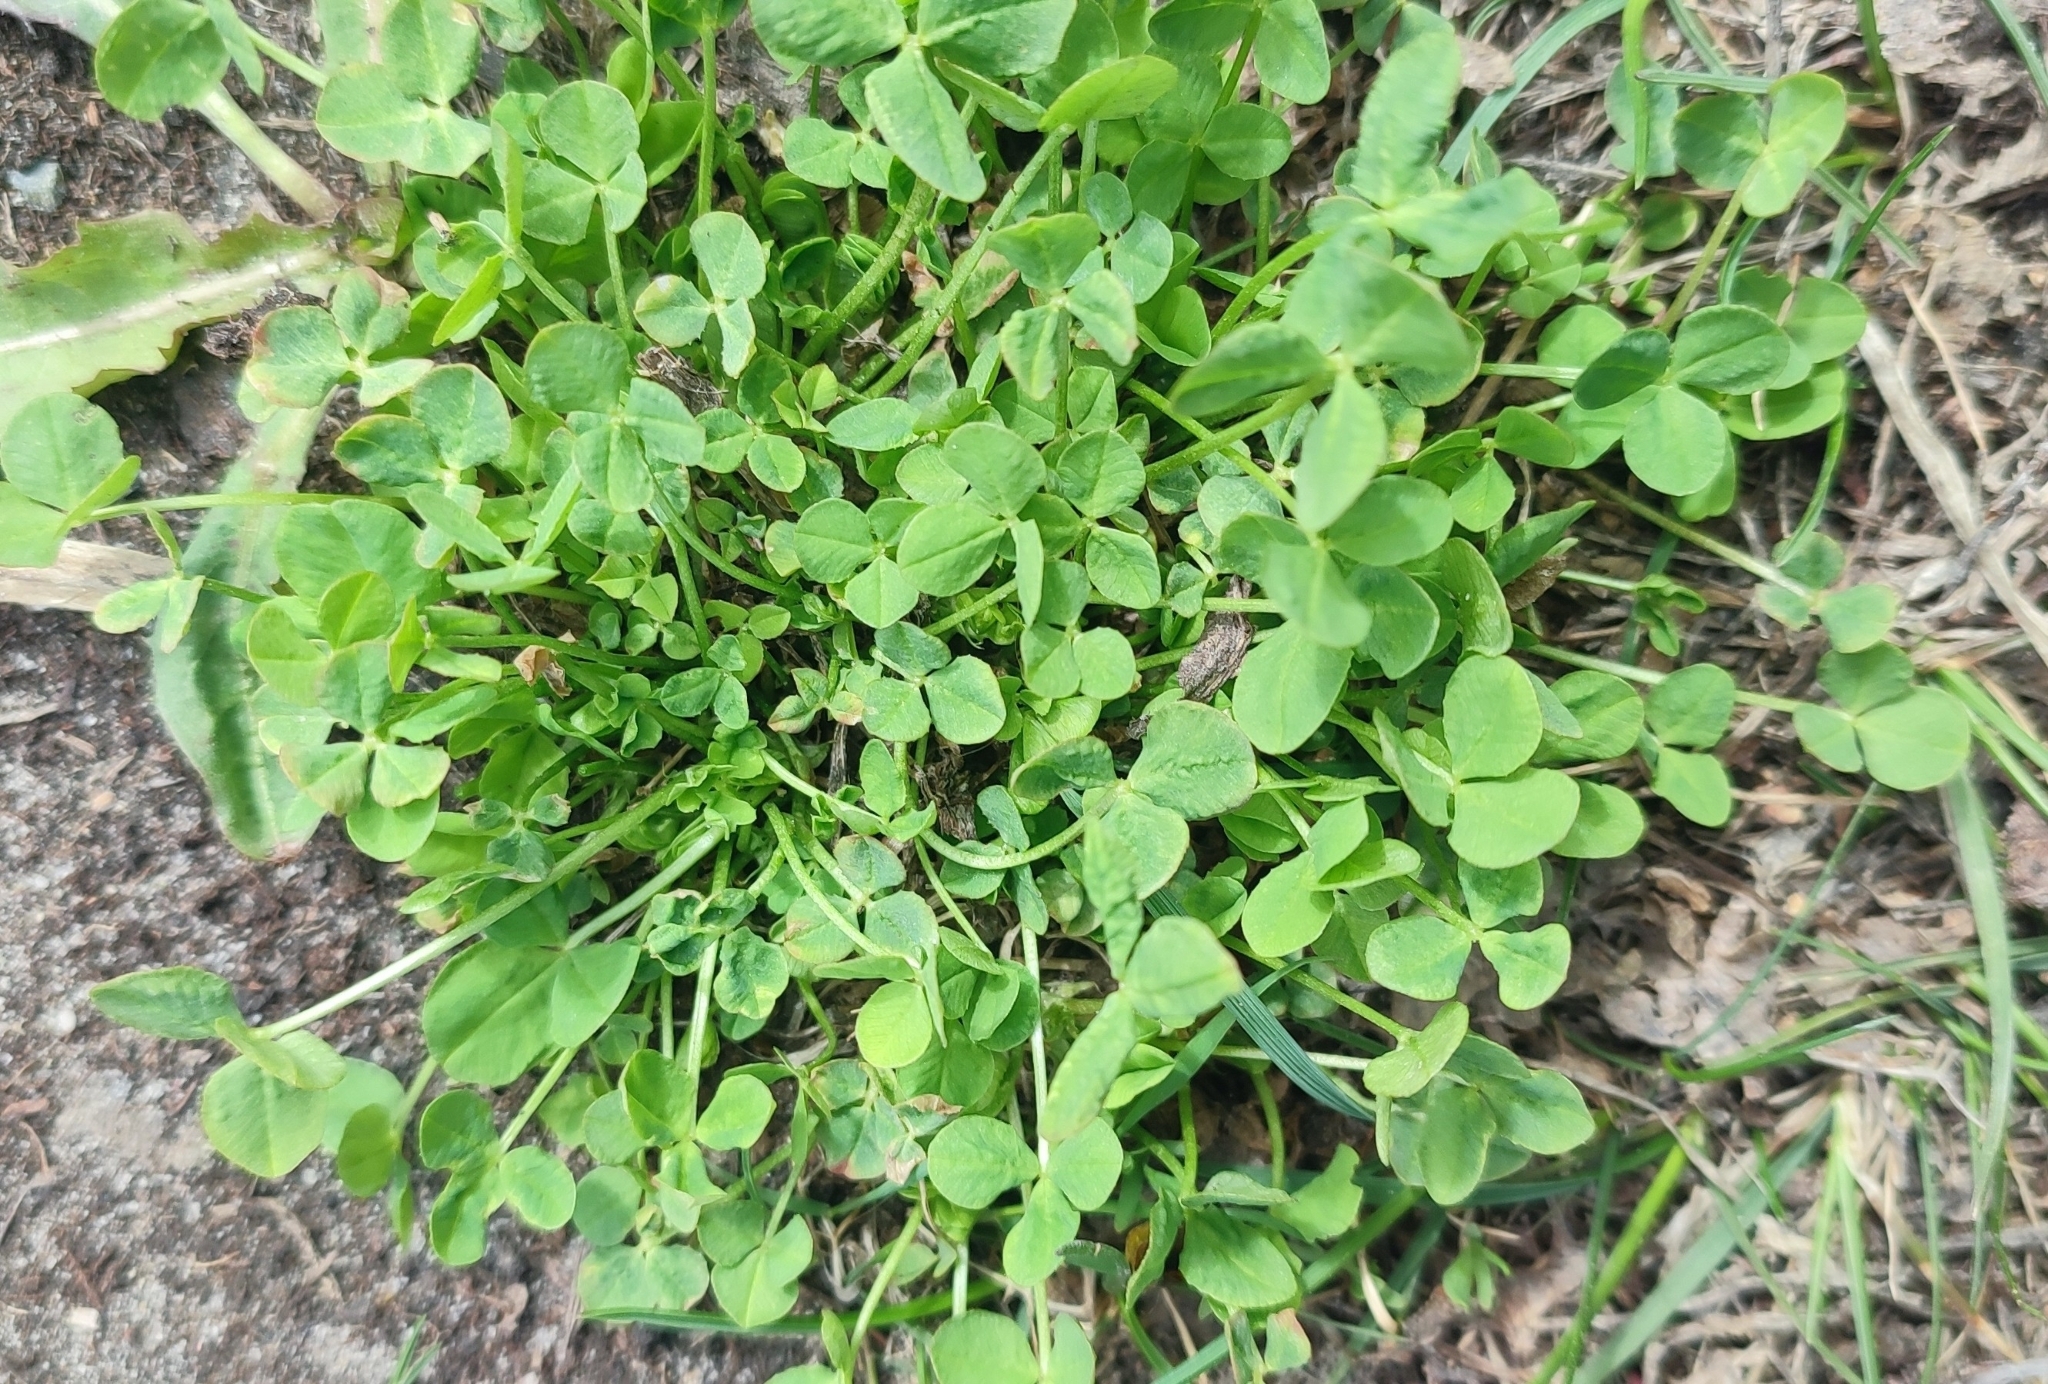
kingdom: Plantae
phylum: Tracheophyta
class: Magnoliopsida
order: Fabales
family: Fabaceae
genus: Medicago
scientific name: Medicago lupulina
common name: Black medick
